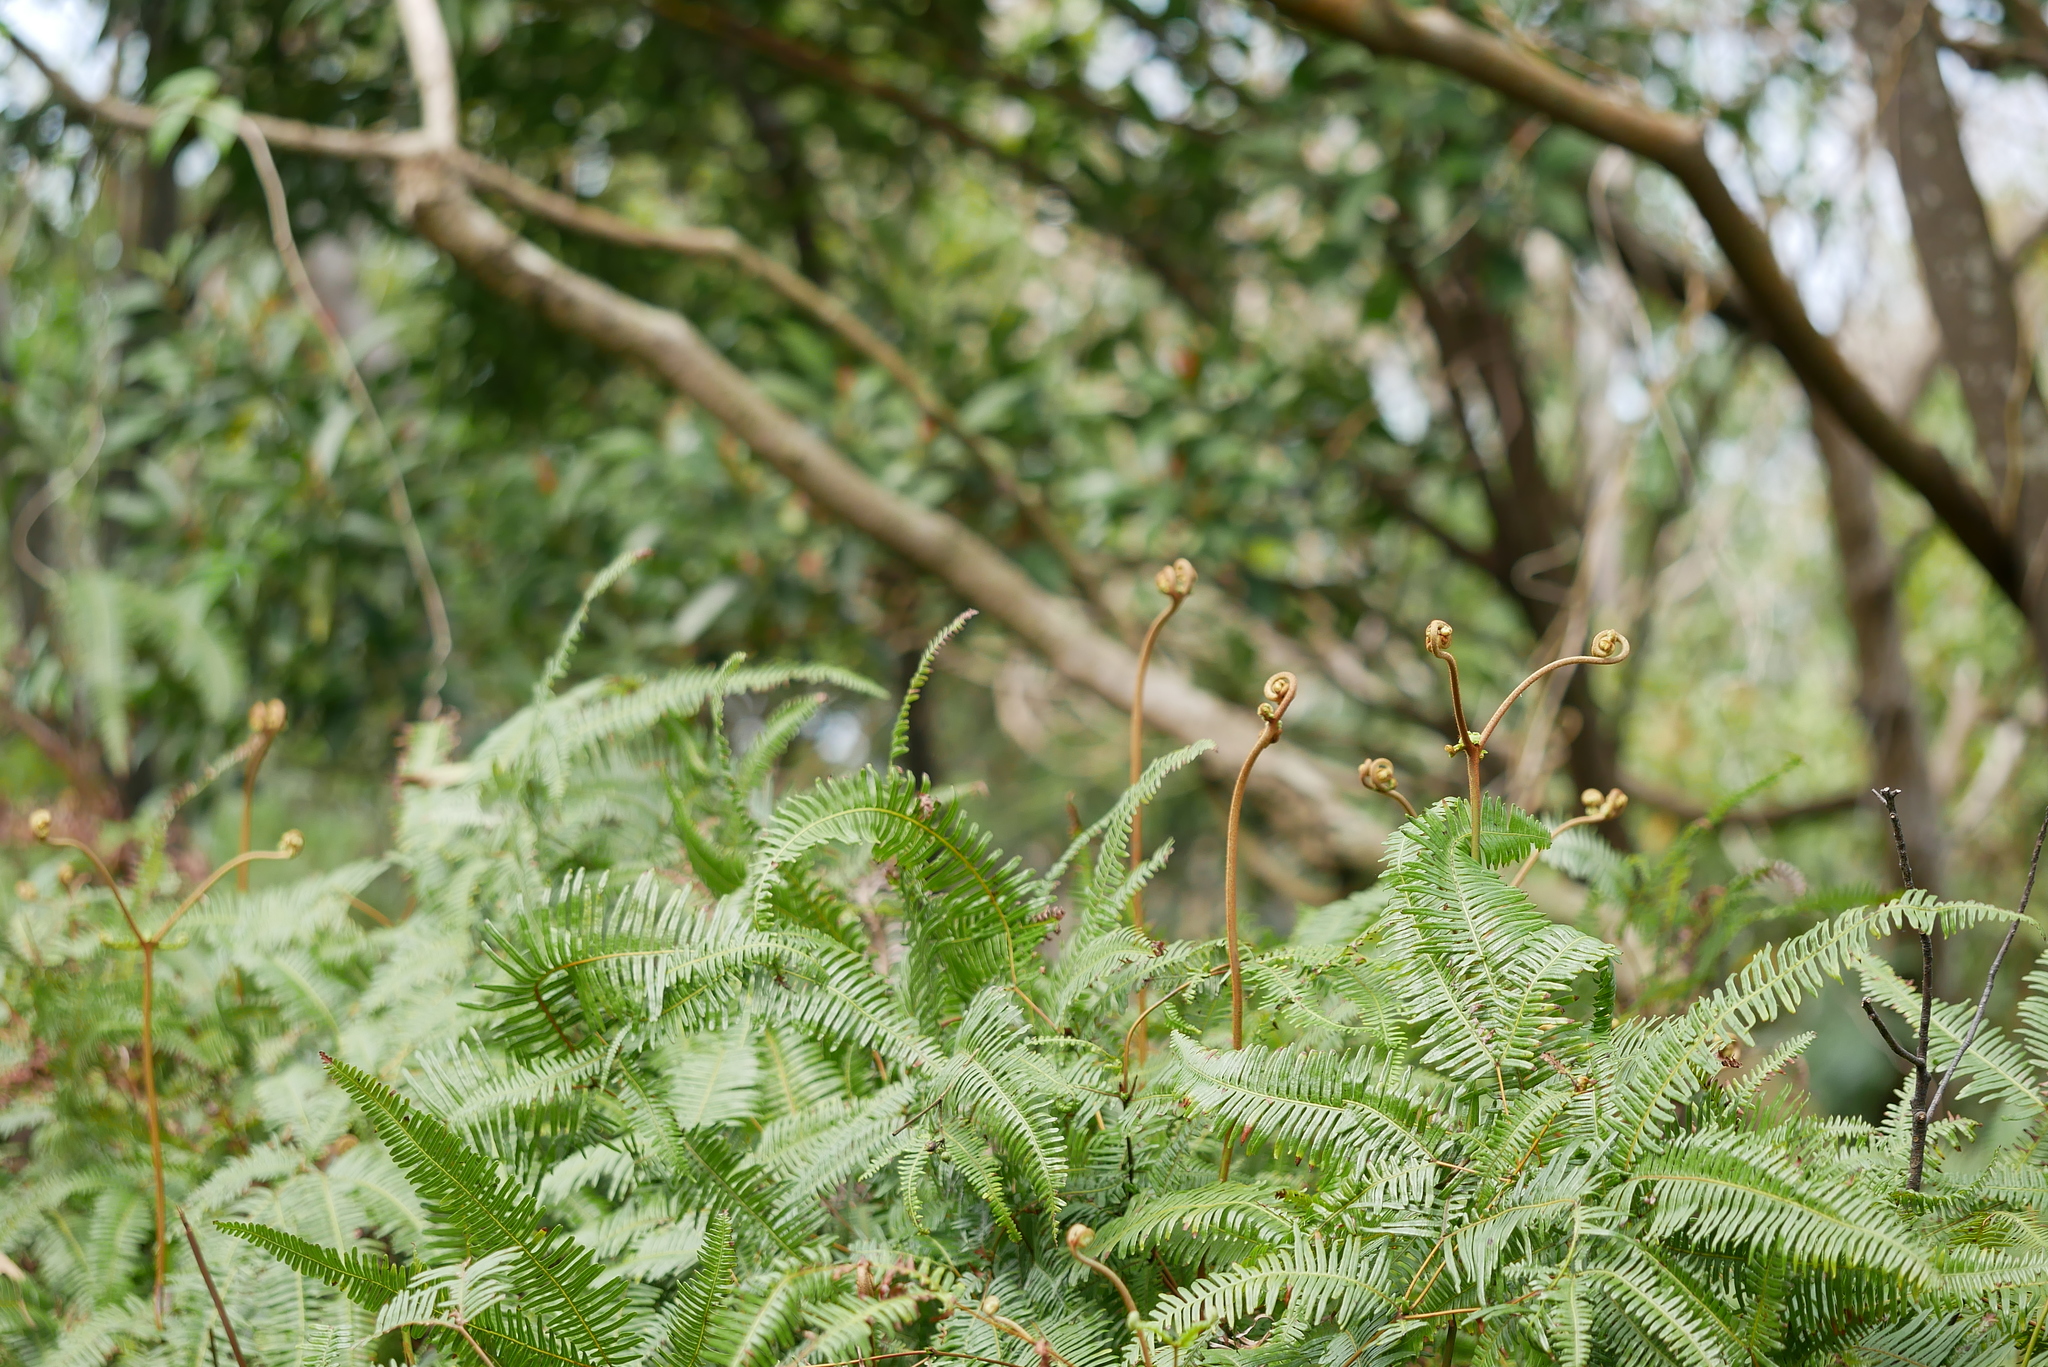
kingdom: Plantae
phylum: Tracheophyta
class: Polypodiopsida
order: Gleicheniales
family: Gleicheniaceae
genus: Dicranopteris
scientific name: Dicranopteris linearis
